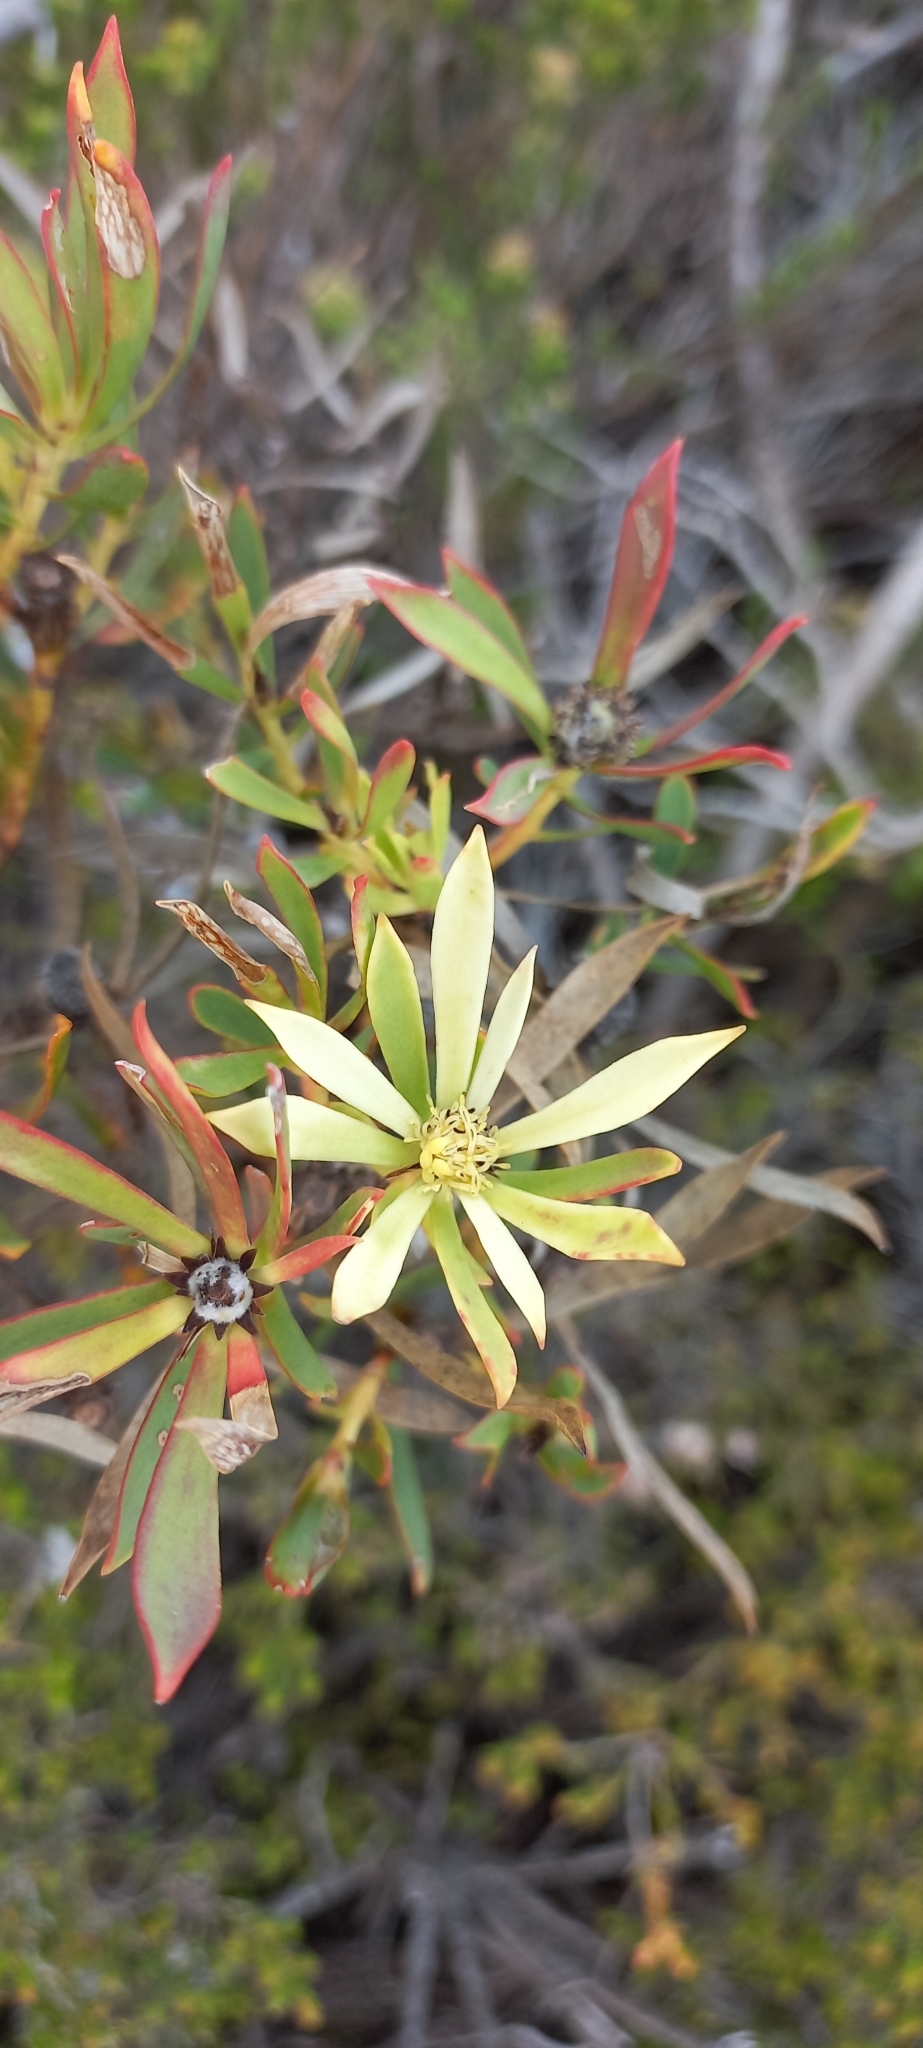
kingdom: Plantae
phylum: Tracheophyta
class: Magnoliopsida
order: Proteales
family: Proteaceae
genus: Leucadendron
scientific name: Leucadendron salignum
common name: Common sunshine conebush
